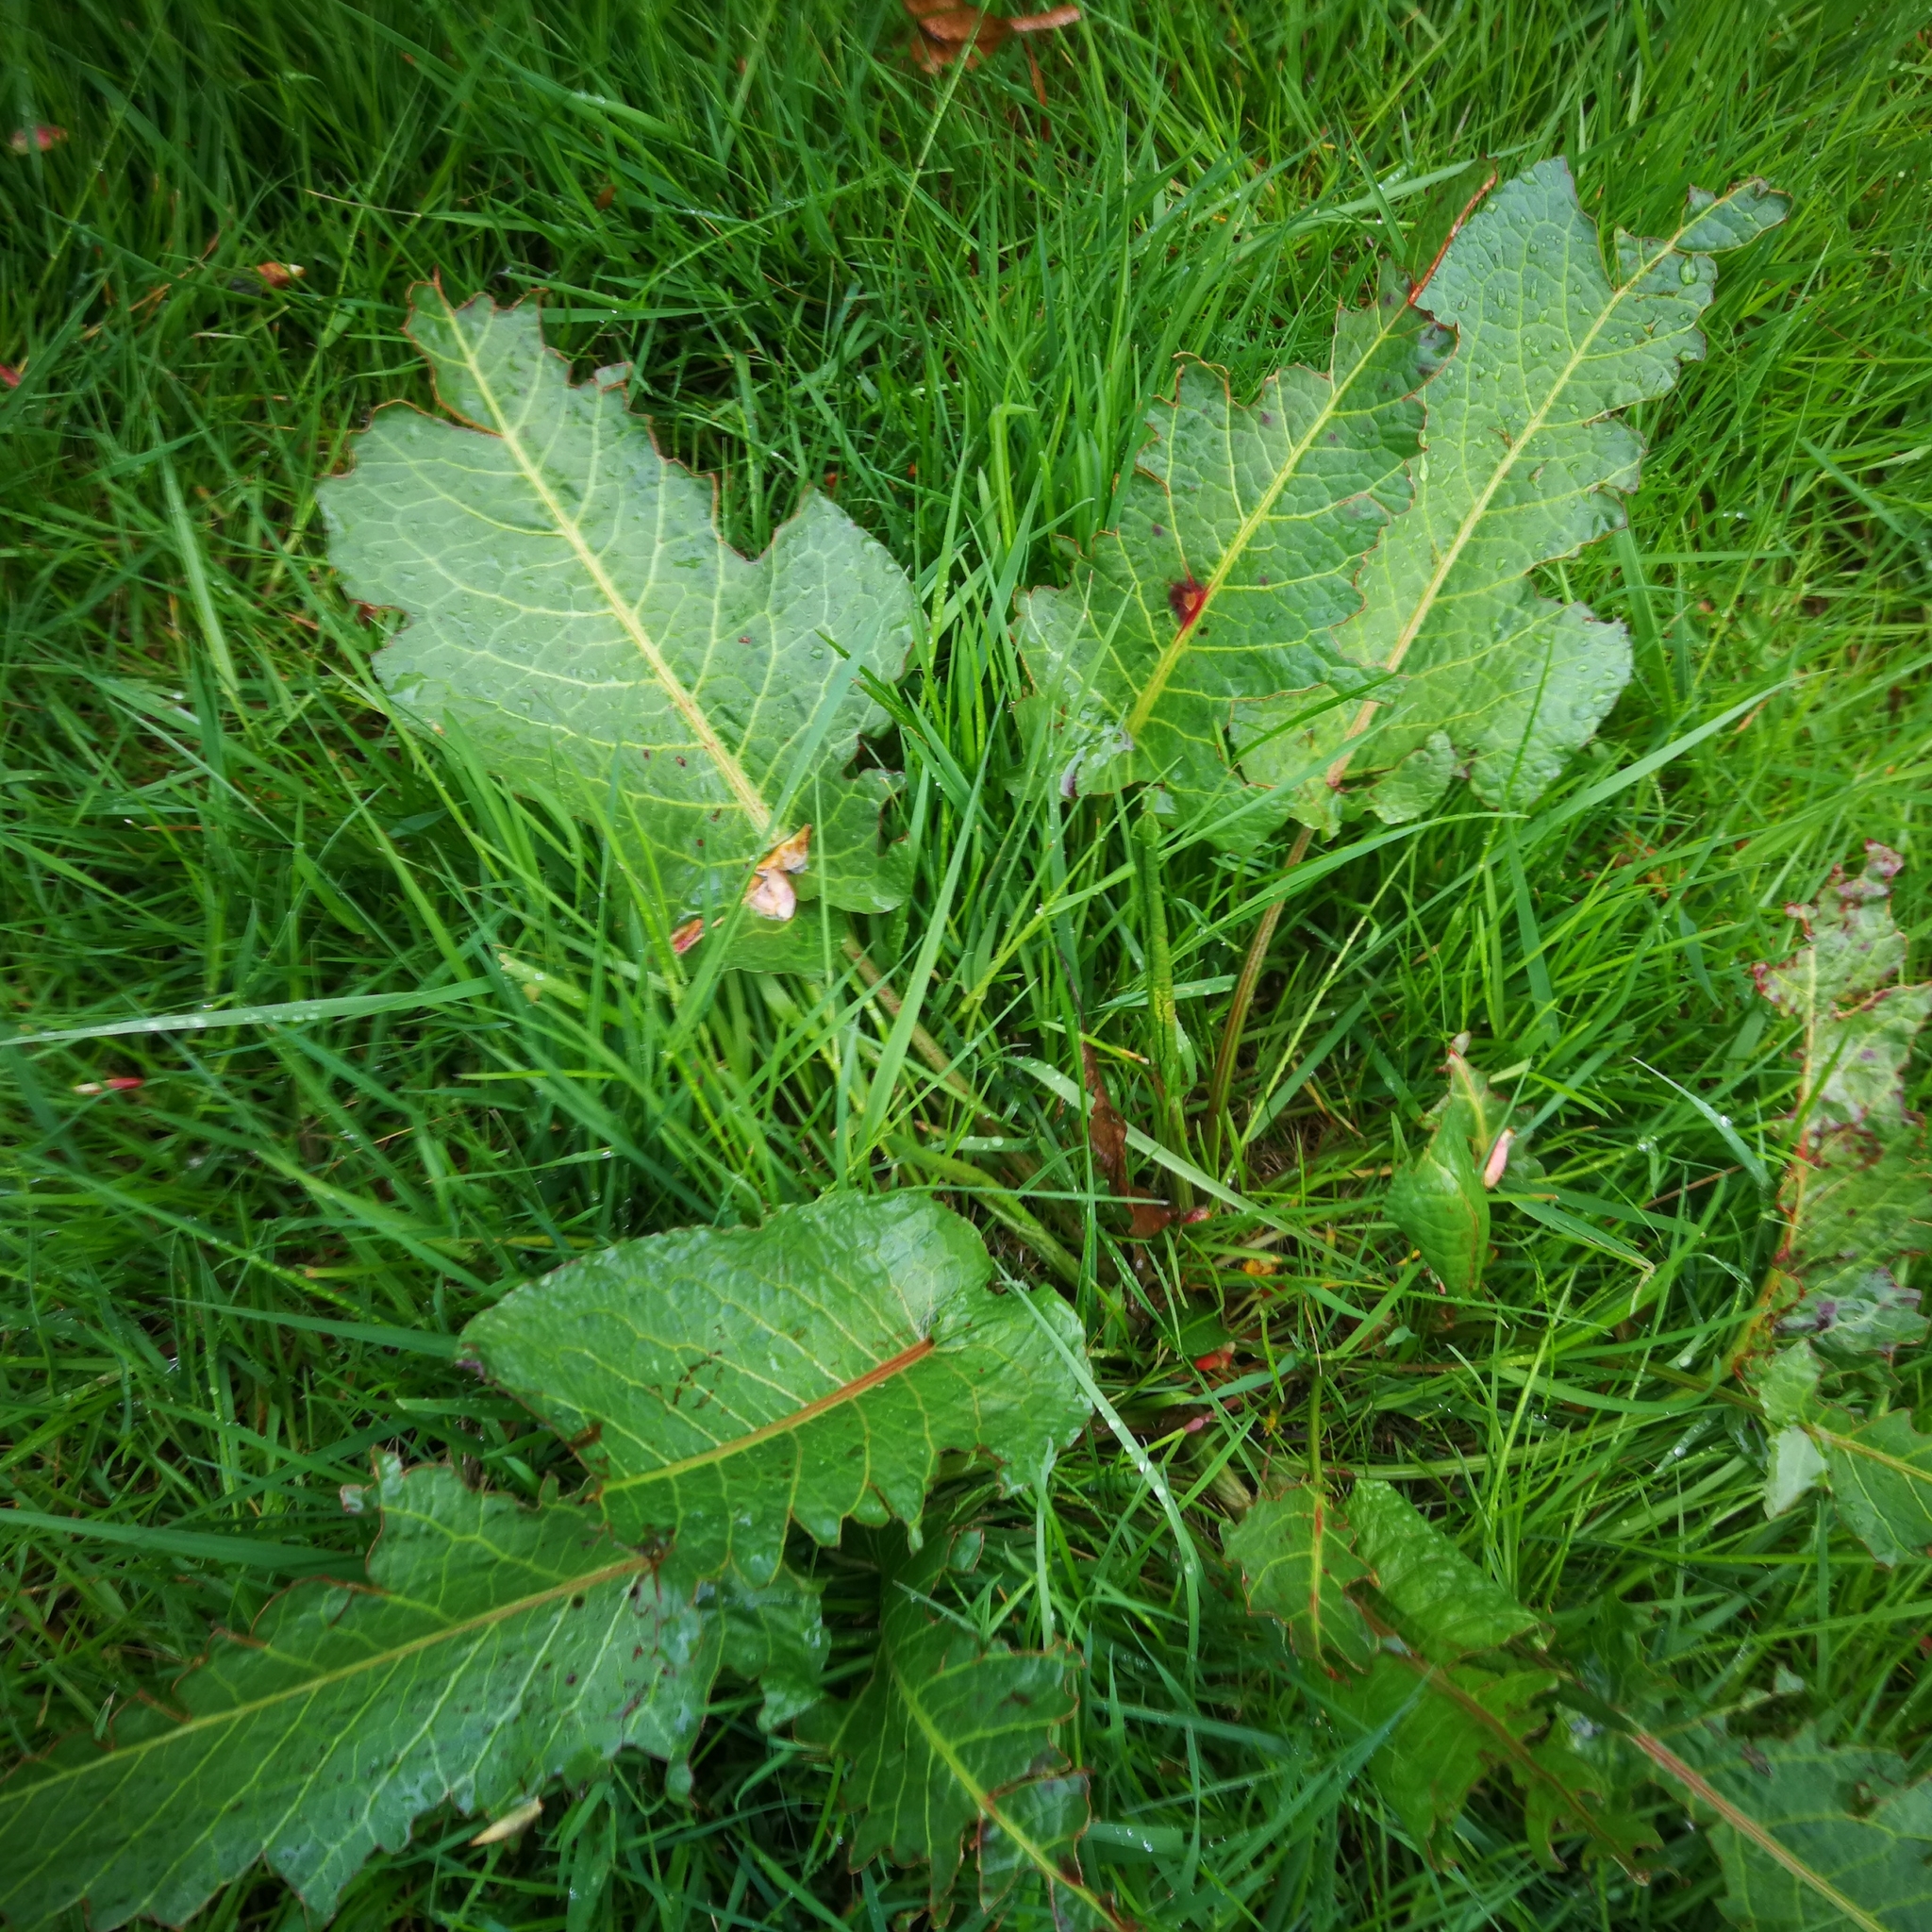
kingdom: Plantae
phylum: Tracheophyta
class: Magnoliopsida
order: Caryophyllales
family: Polygonaceae
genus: Rumex
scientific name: Rumex obtusifolius
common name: Bitter dock
